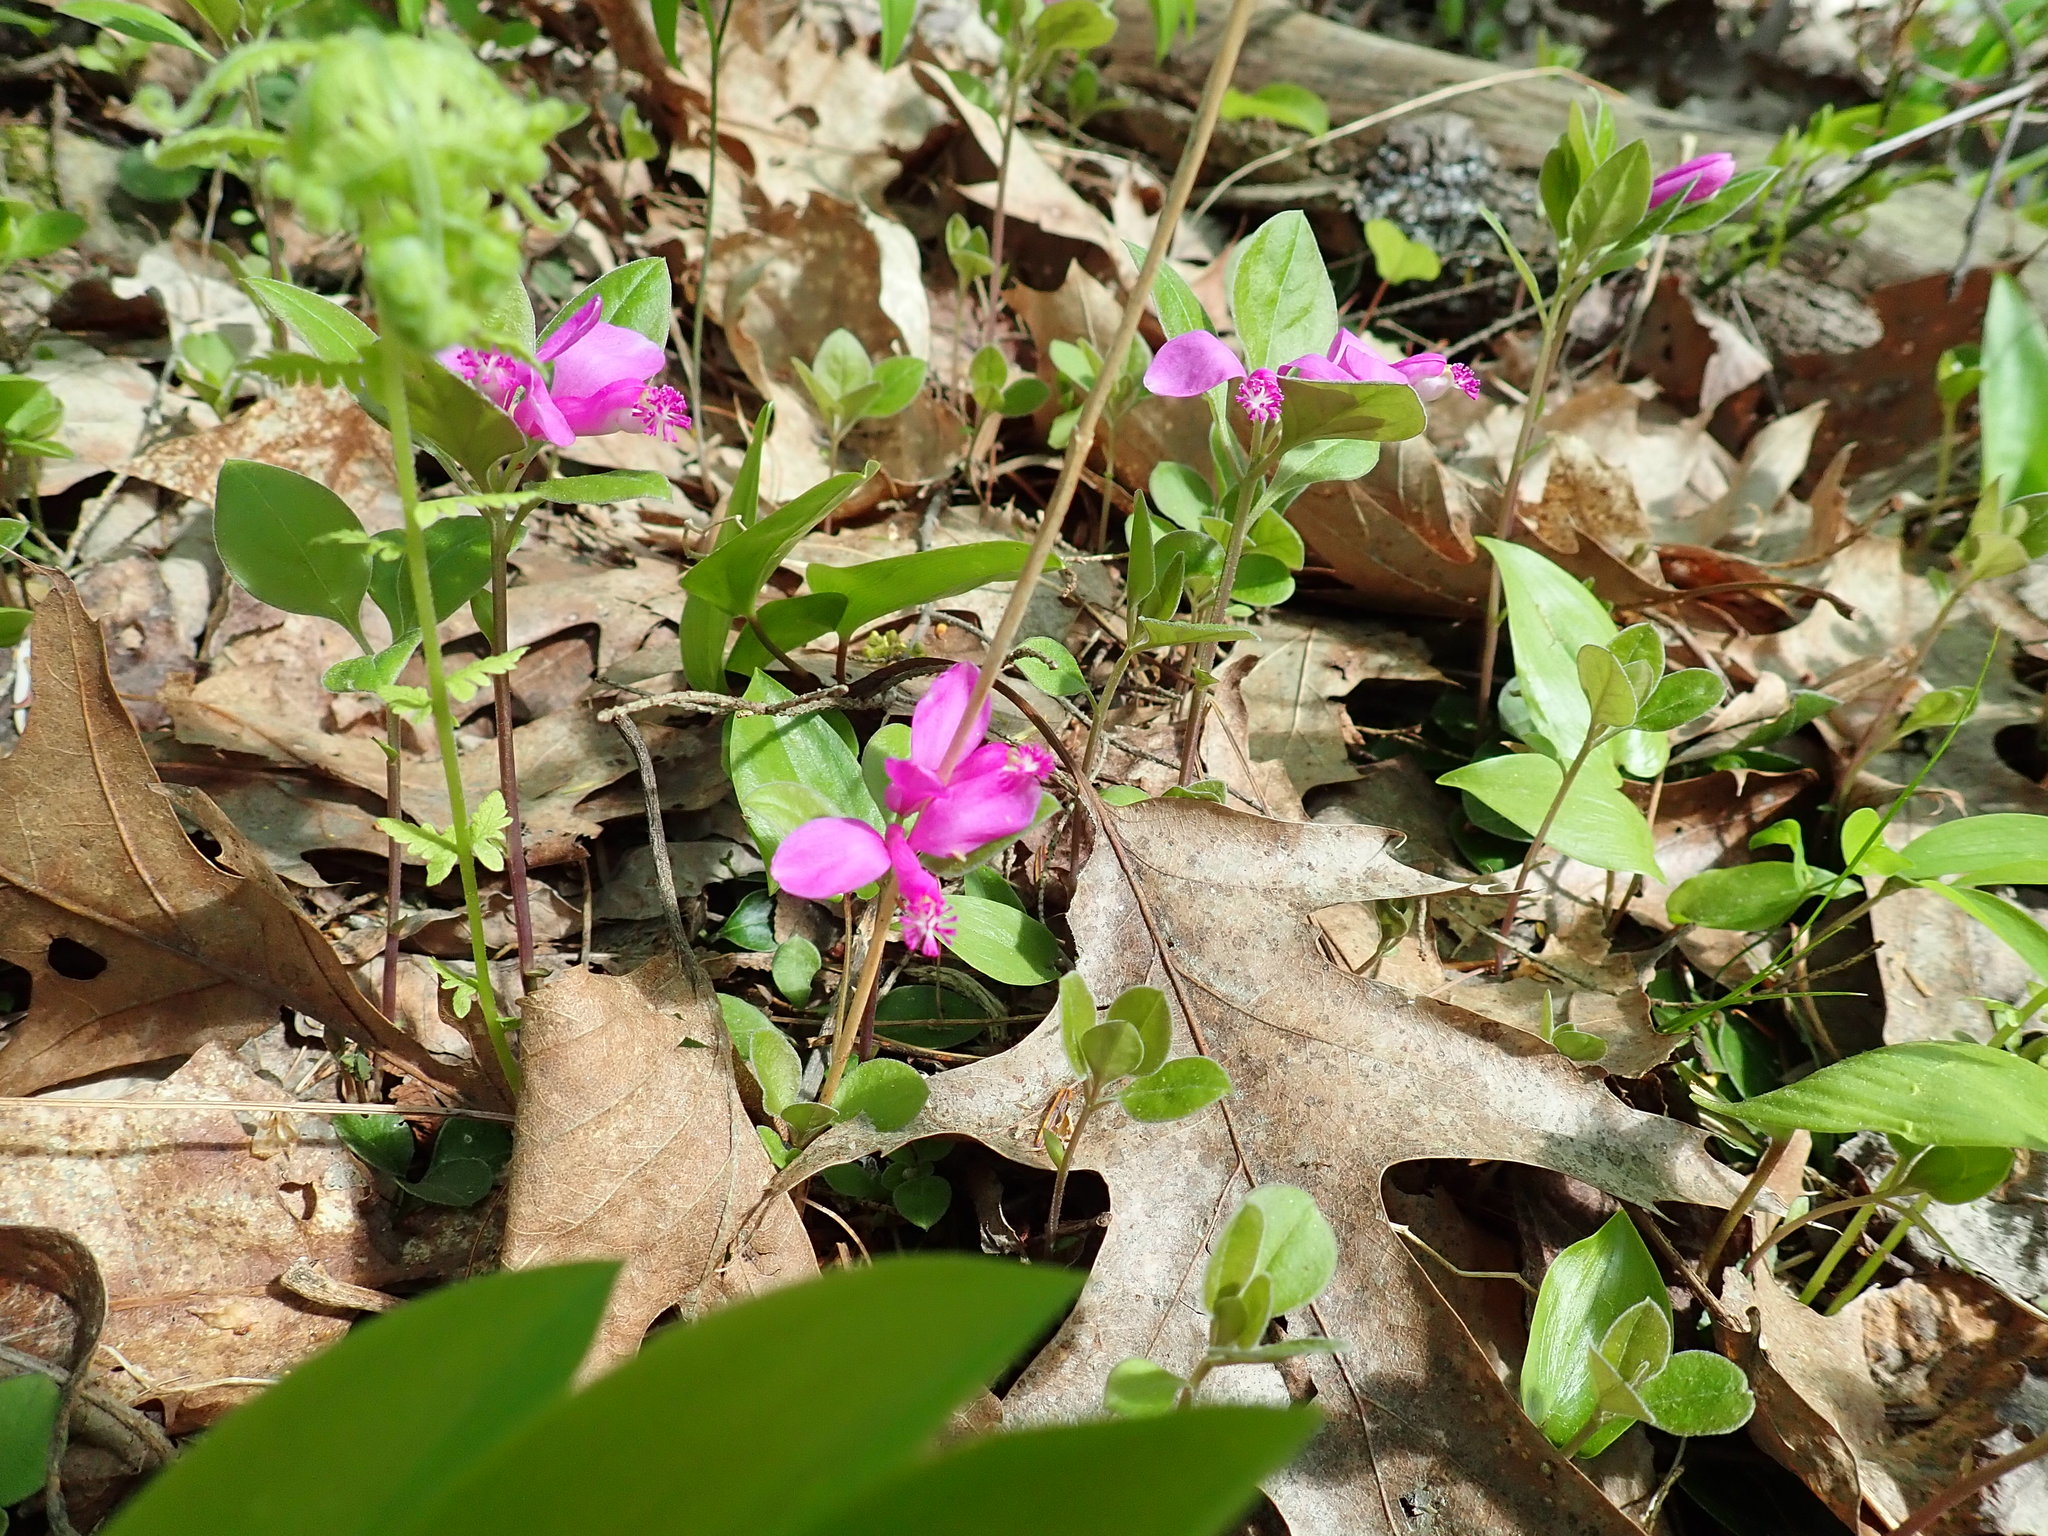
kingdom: Plantae
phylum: Tracheophyta
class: Magnoliopsida
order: Fabales
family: Polygalaceae
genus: Polygaloides
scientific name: Polygaloides paucifolia
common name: Bird-on-the-wing
